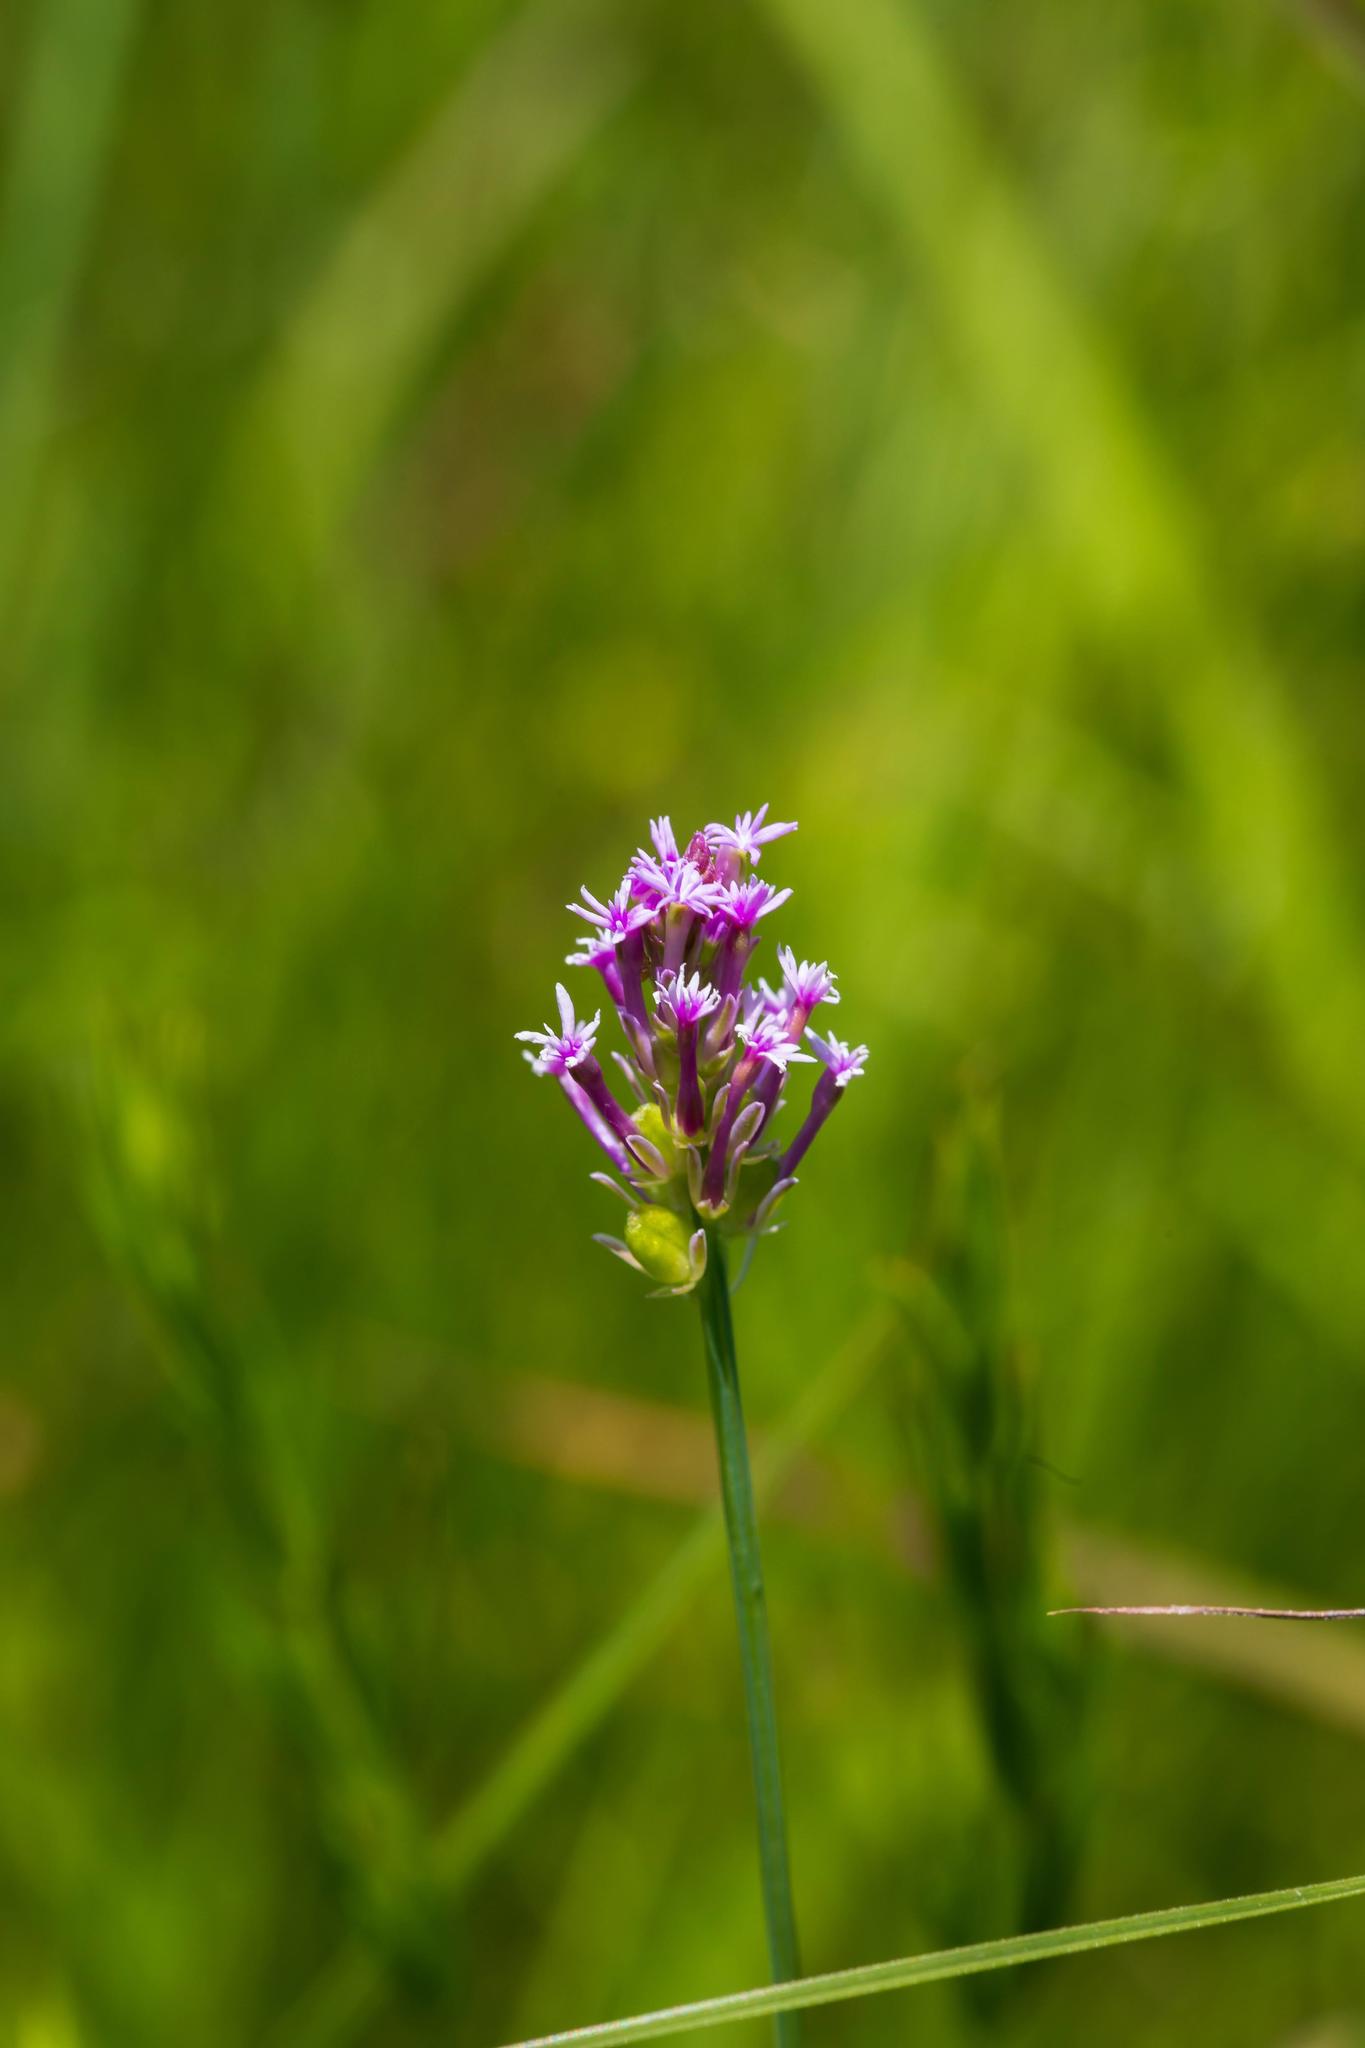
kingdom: Plantae
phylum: Tracheophyta
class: Magnoliopsida
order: Fabales
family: Polygalaceae
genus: Polygala
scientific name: Polygala incarnata
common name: Pink milkwort
